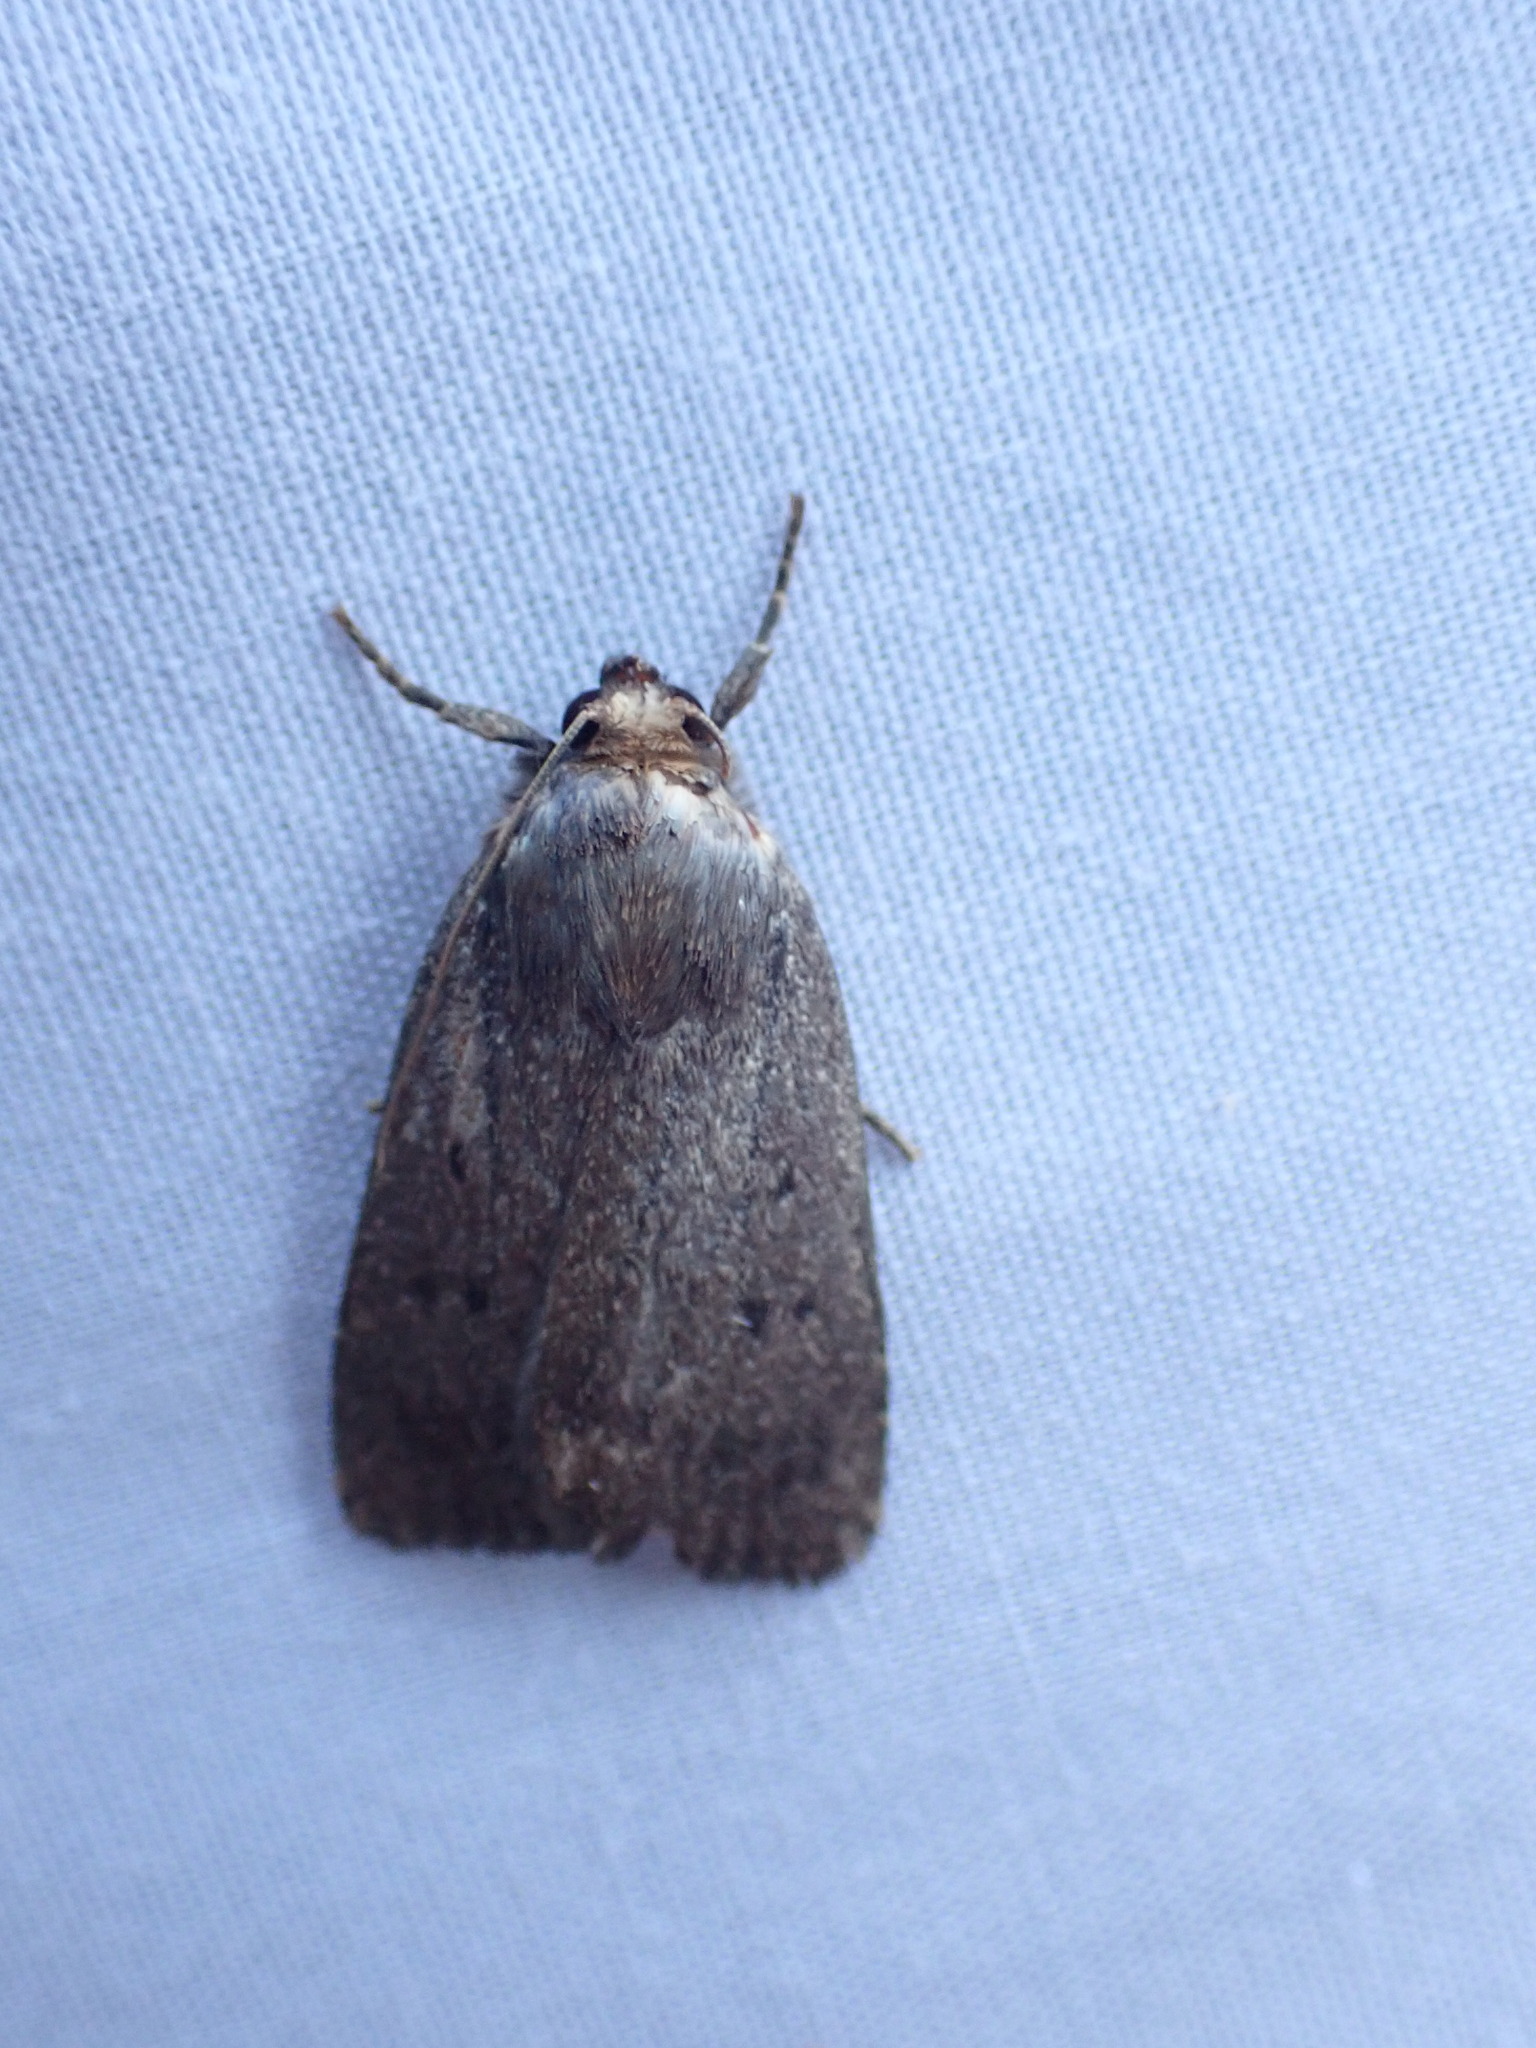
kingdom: Animalia
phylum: Arthropoda
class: Insecta
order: Lepidoptera
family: Noctuidae
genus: Amphipyra
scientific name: Amphipyra tragopoginis
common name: Mouse moth
